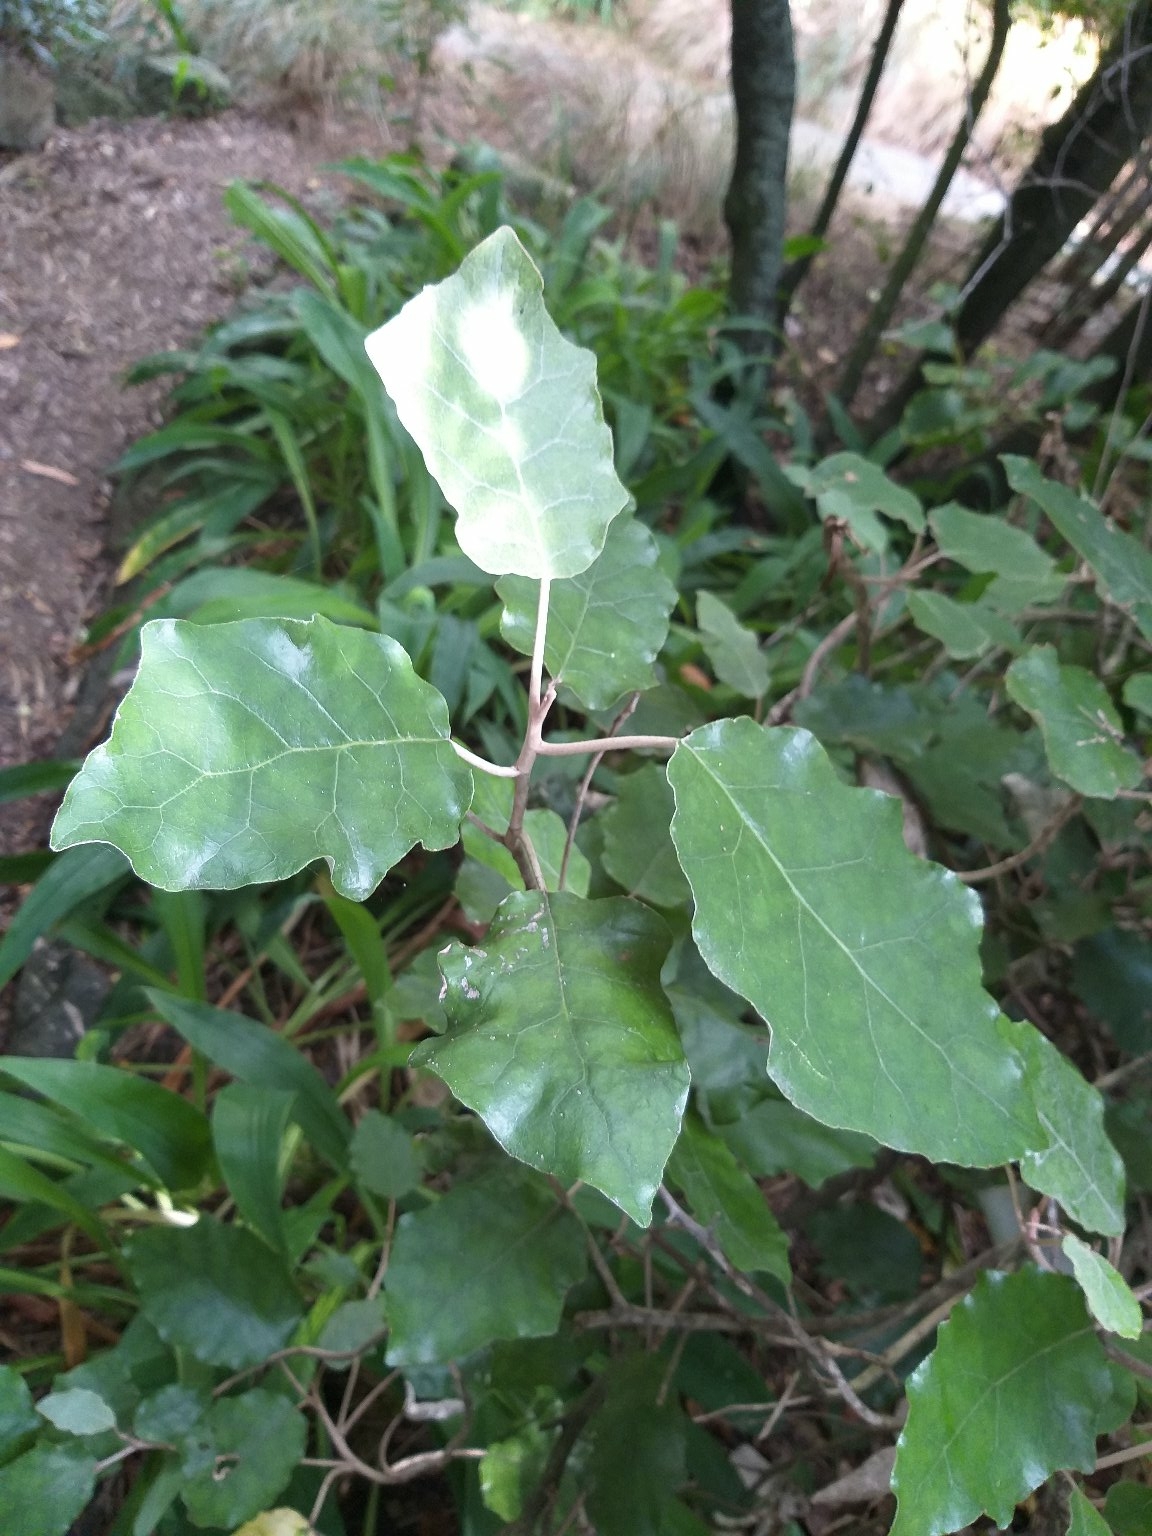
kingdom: Plantae
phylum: Tracheophyta
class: Magnoliopsida
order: Asterales
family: Asteraceae
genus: Brachyglottis
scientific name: Brachyglottis repanda
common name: Hedge ragwort
